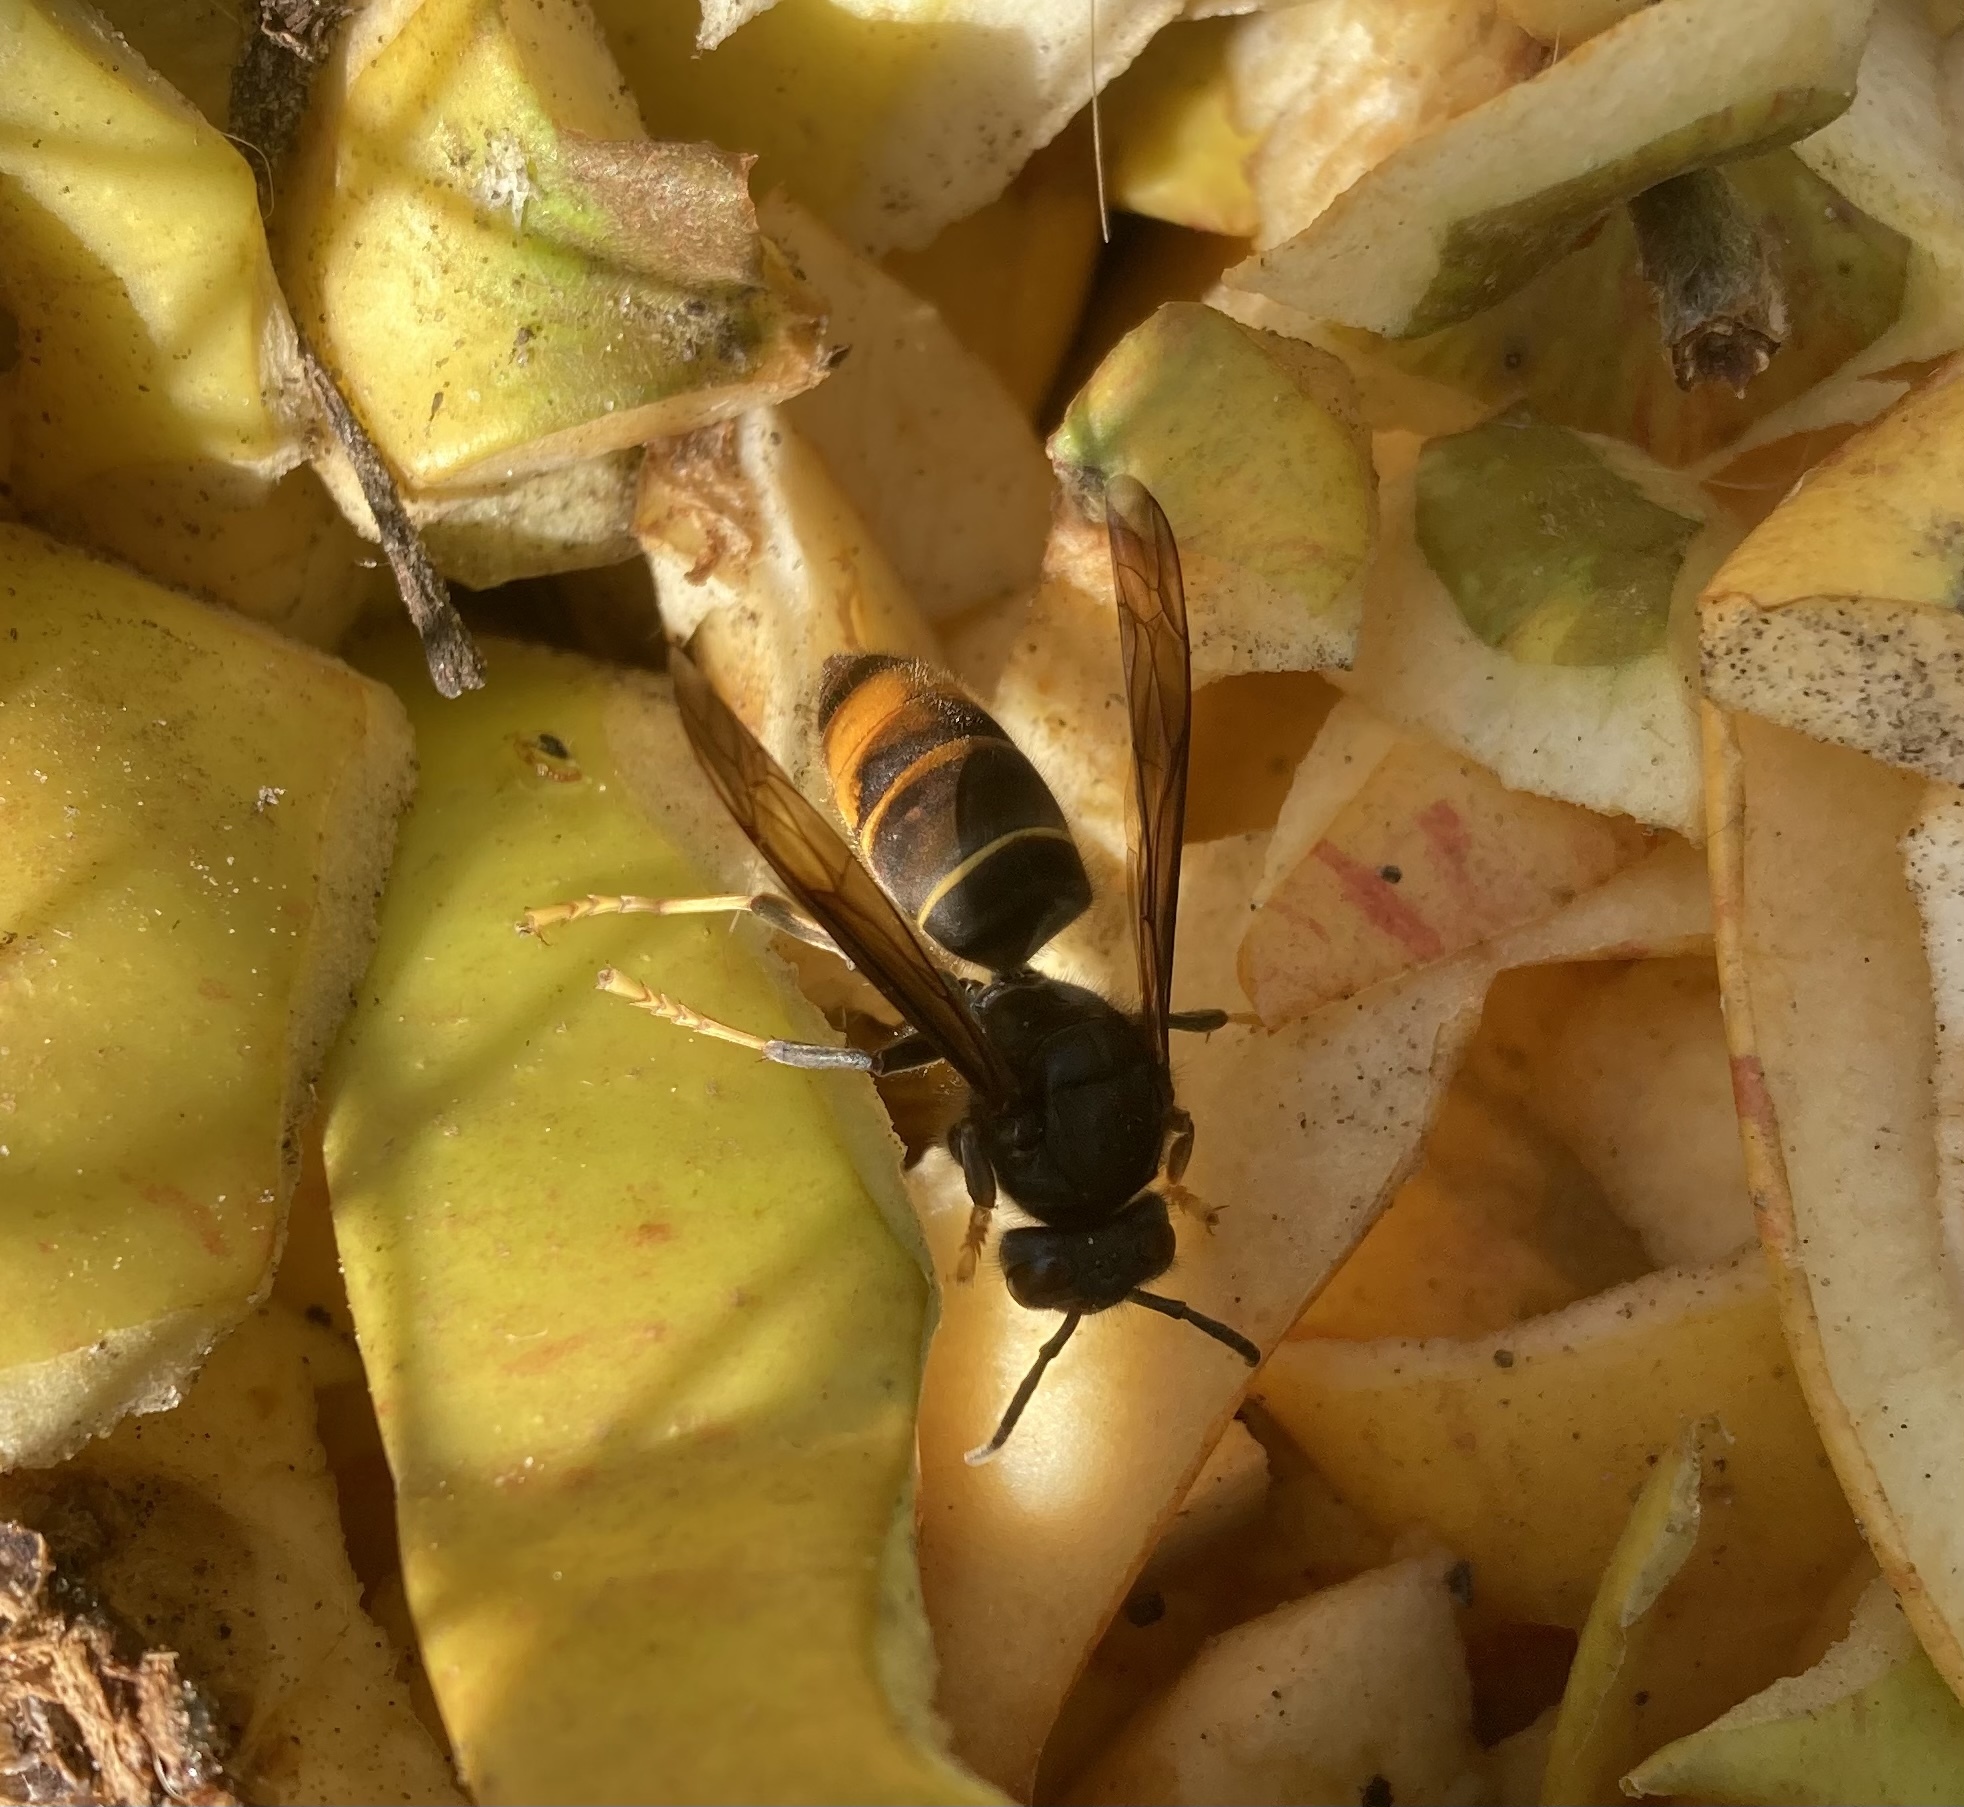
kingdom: Animalia
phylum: Arthropoda
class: Insecta
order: Hymenoptera
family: Vespidae
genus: Vespa
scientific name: Vespa velutina
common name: Asian hornet
